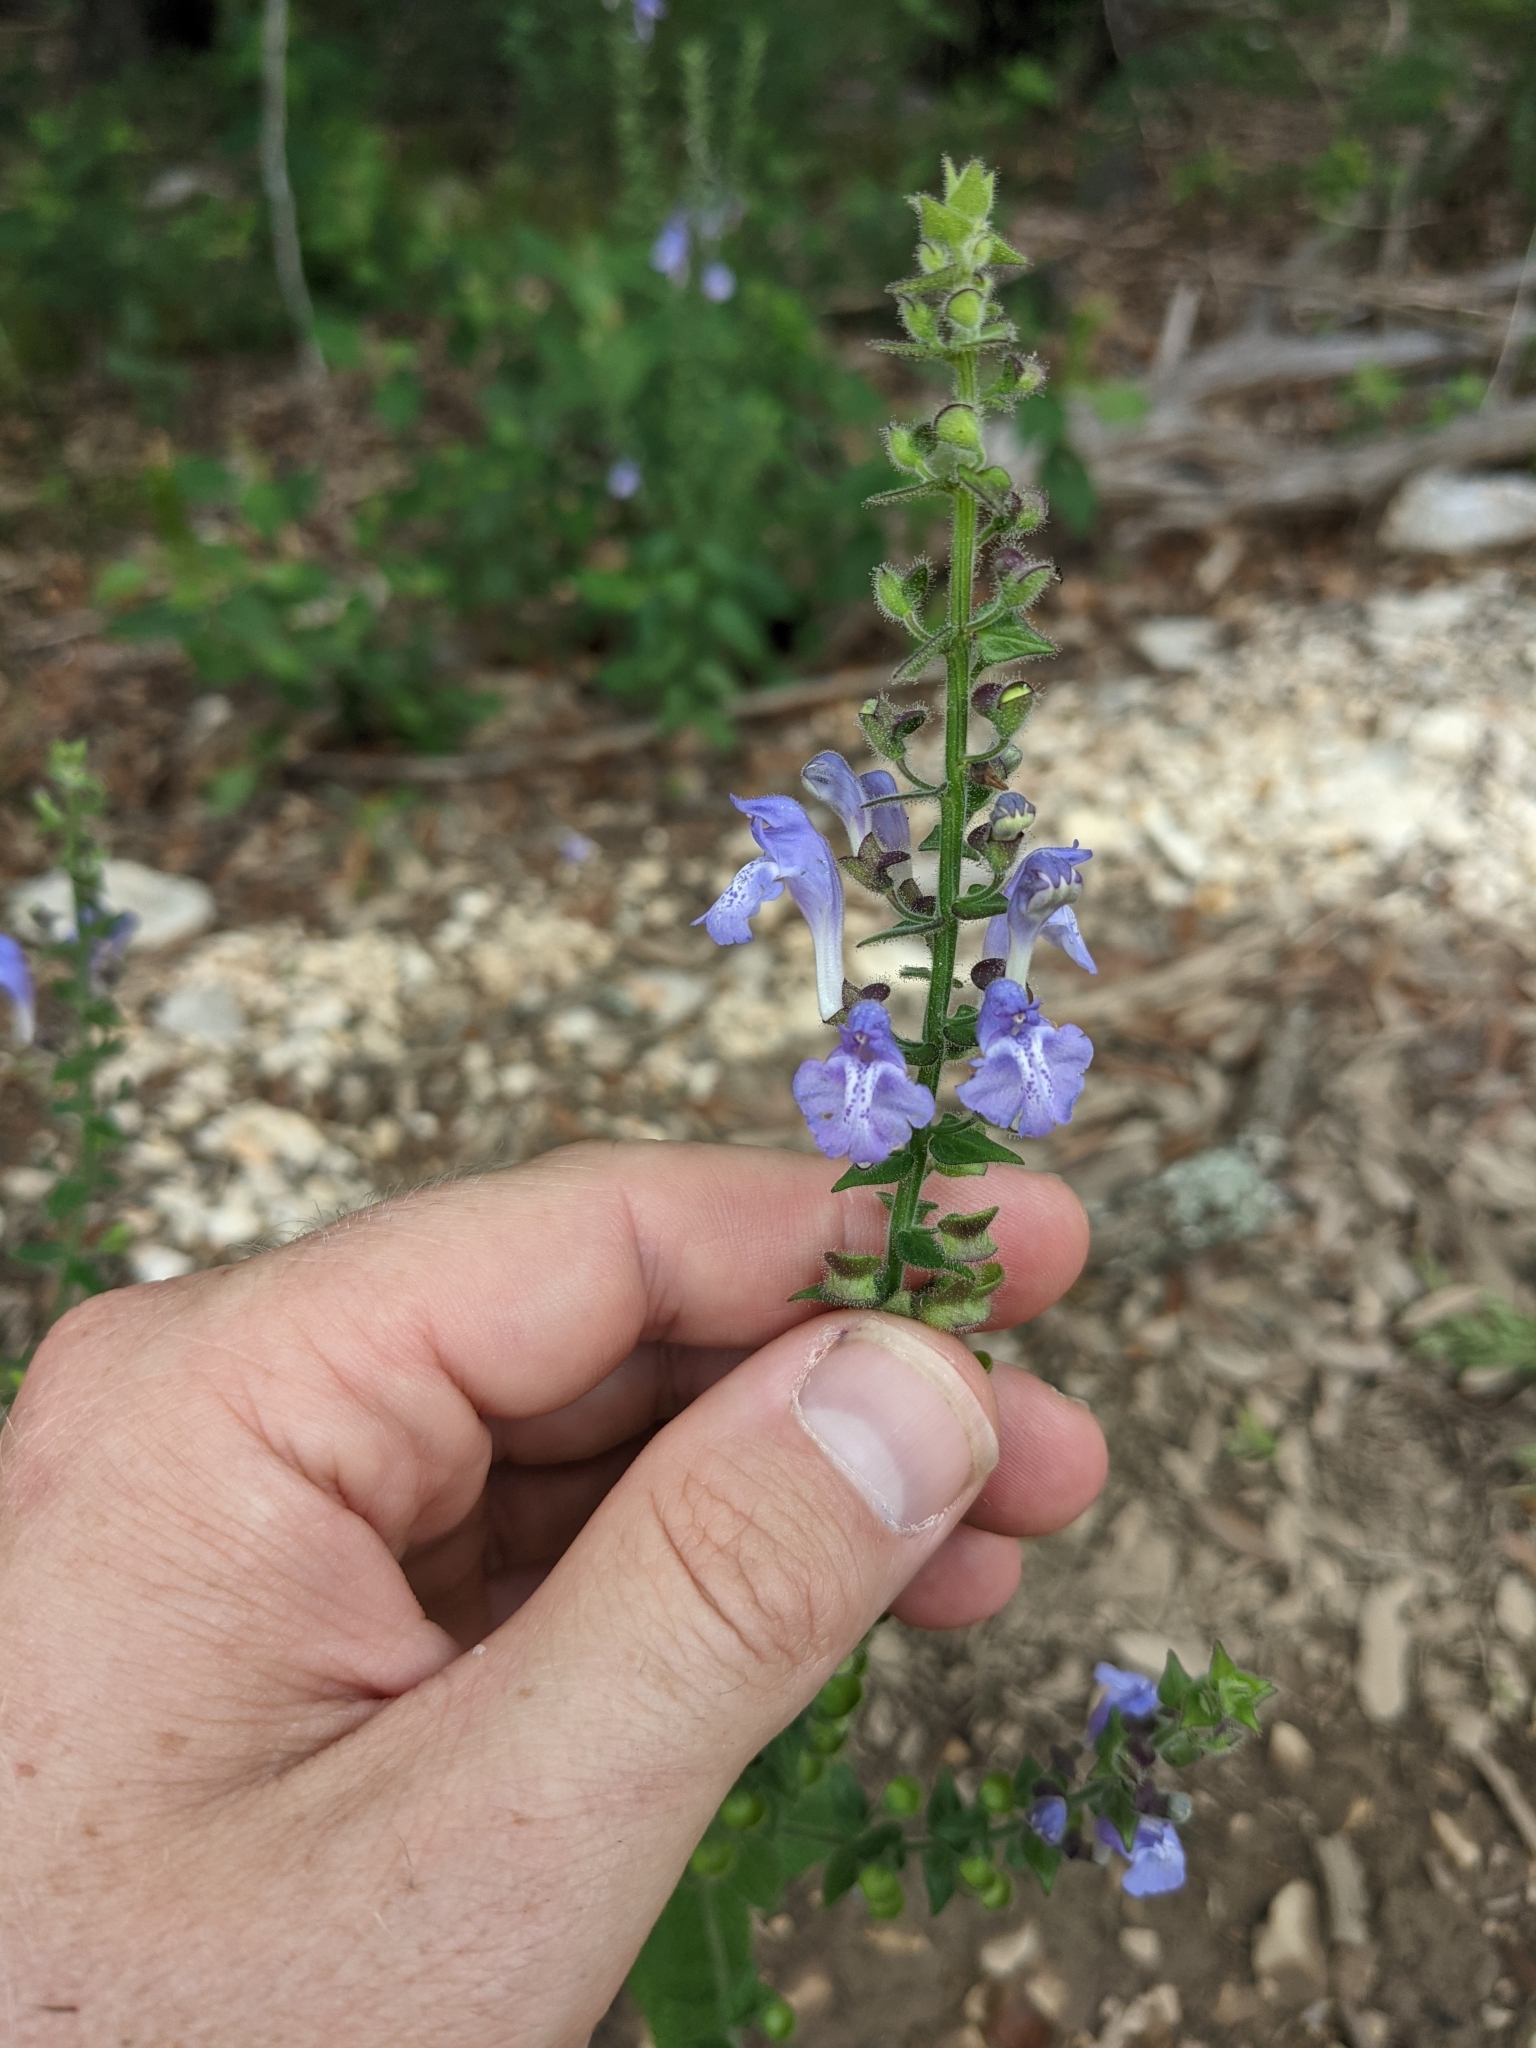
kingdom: Plantae
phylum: Tracheophyta
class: Magnoliopsida
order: Lamiales
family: Lamiaceae
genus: Scutellaria
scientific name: Scutellaria ovata
